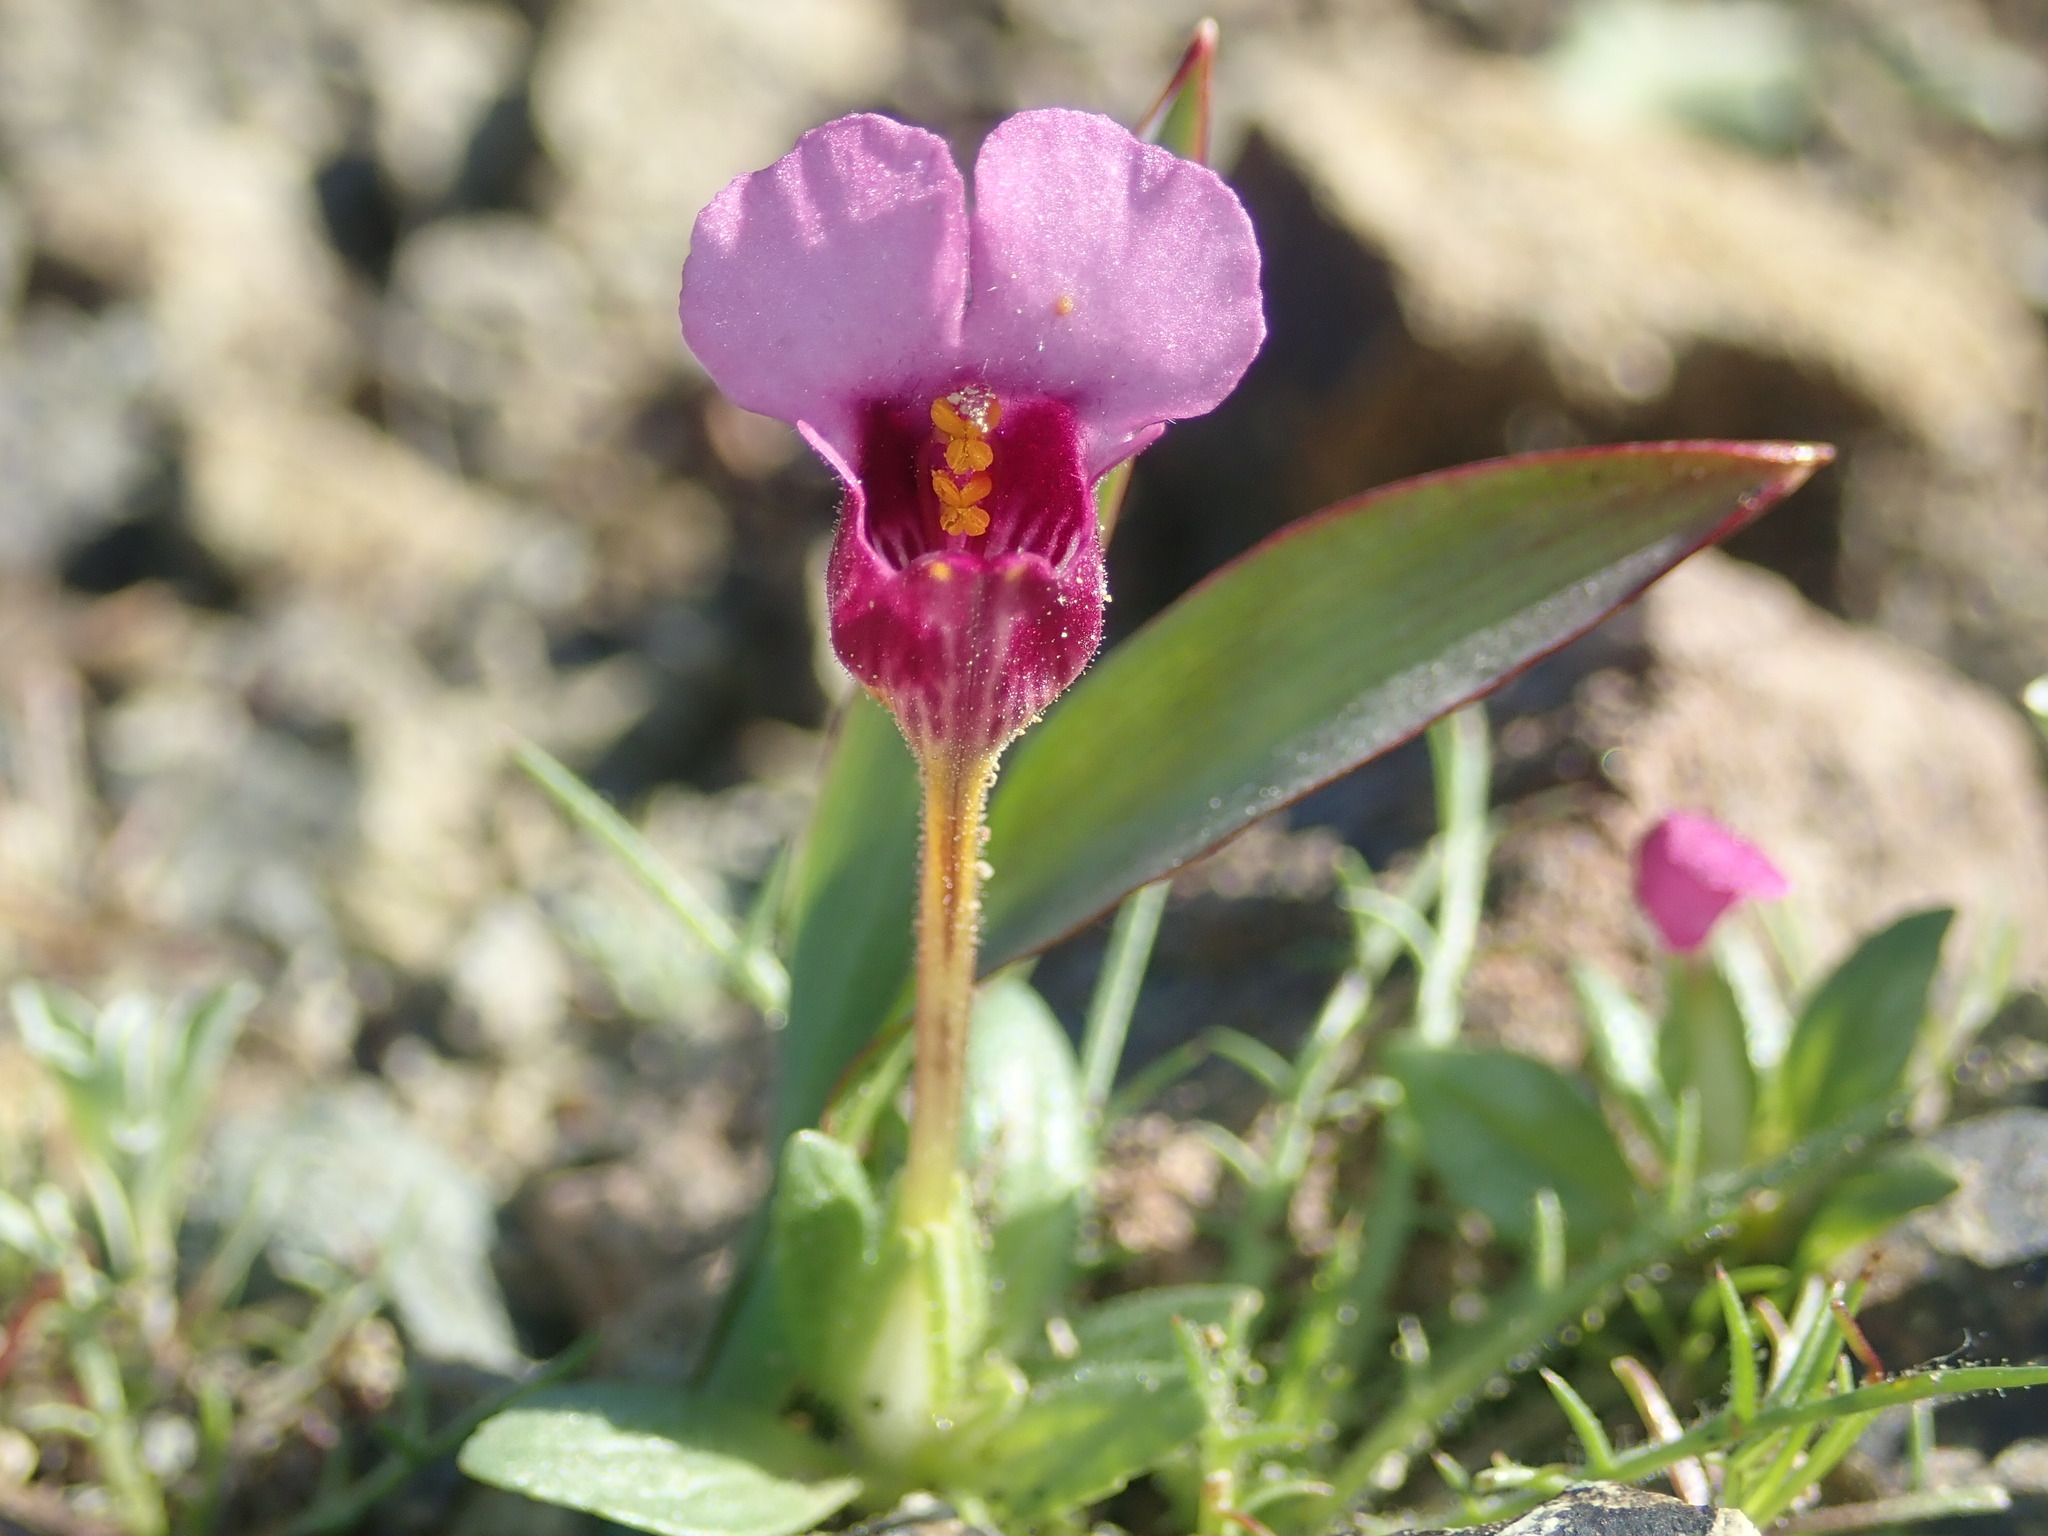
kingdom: Plantae
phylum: Tracheophyta
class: Magnoliopsida
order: Lamiales
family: Phrymaceae
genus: Diplacus
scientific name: Diplacus douglasii
